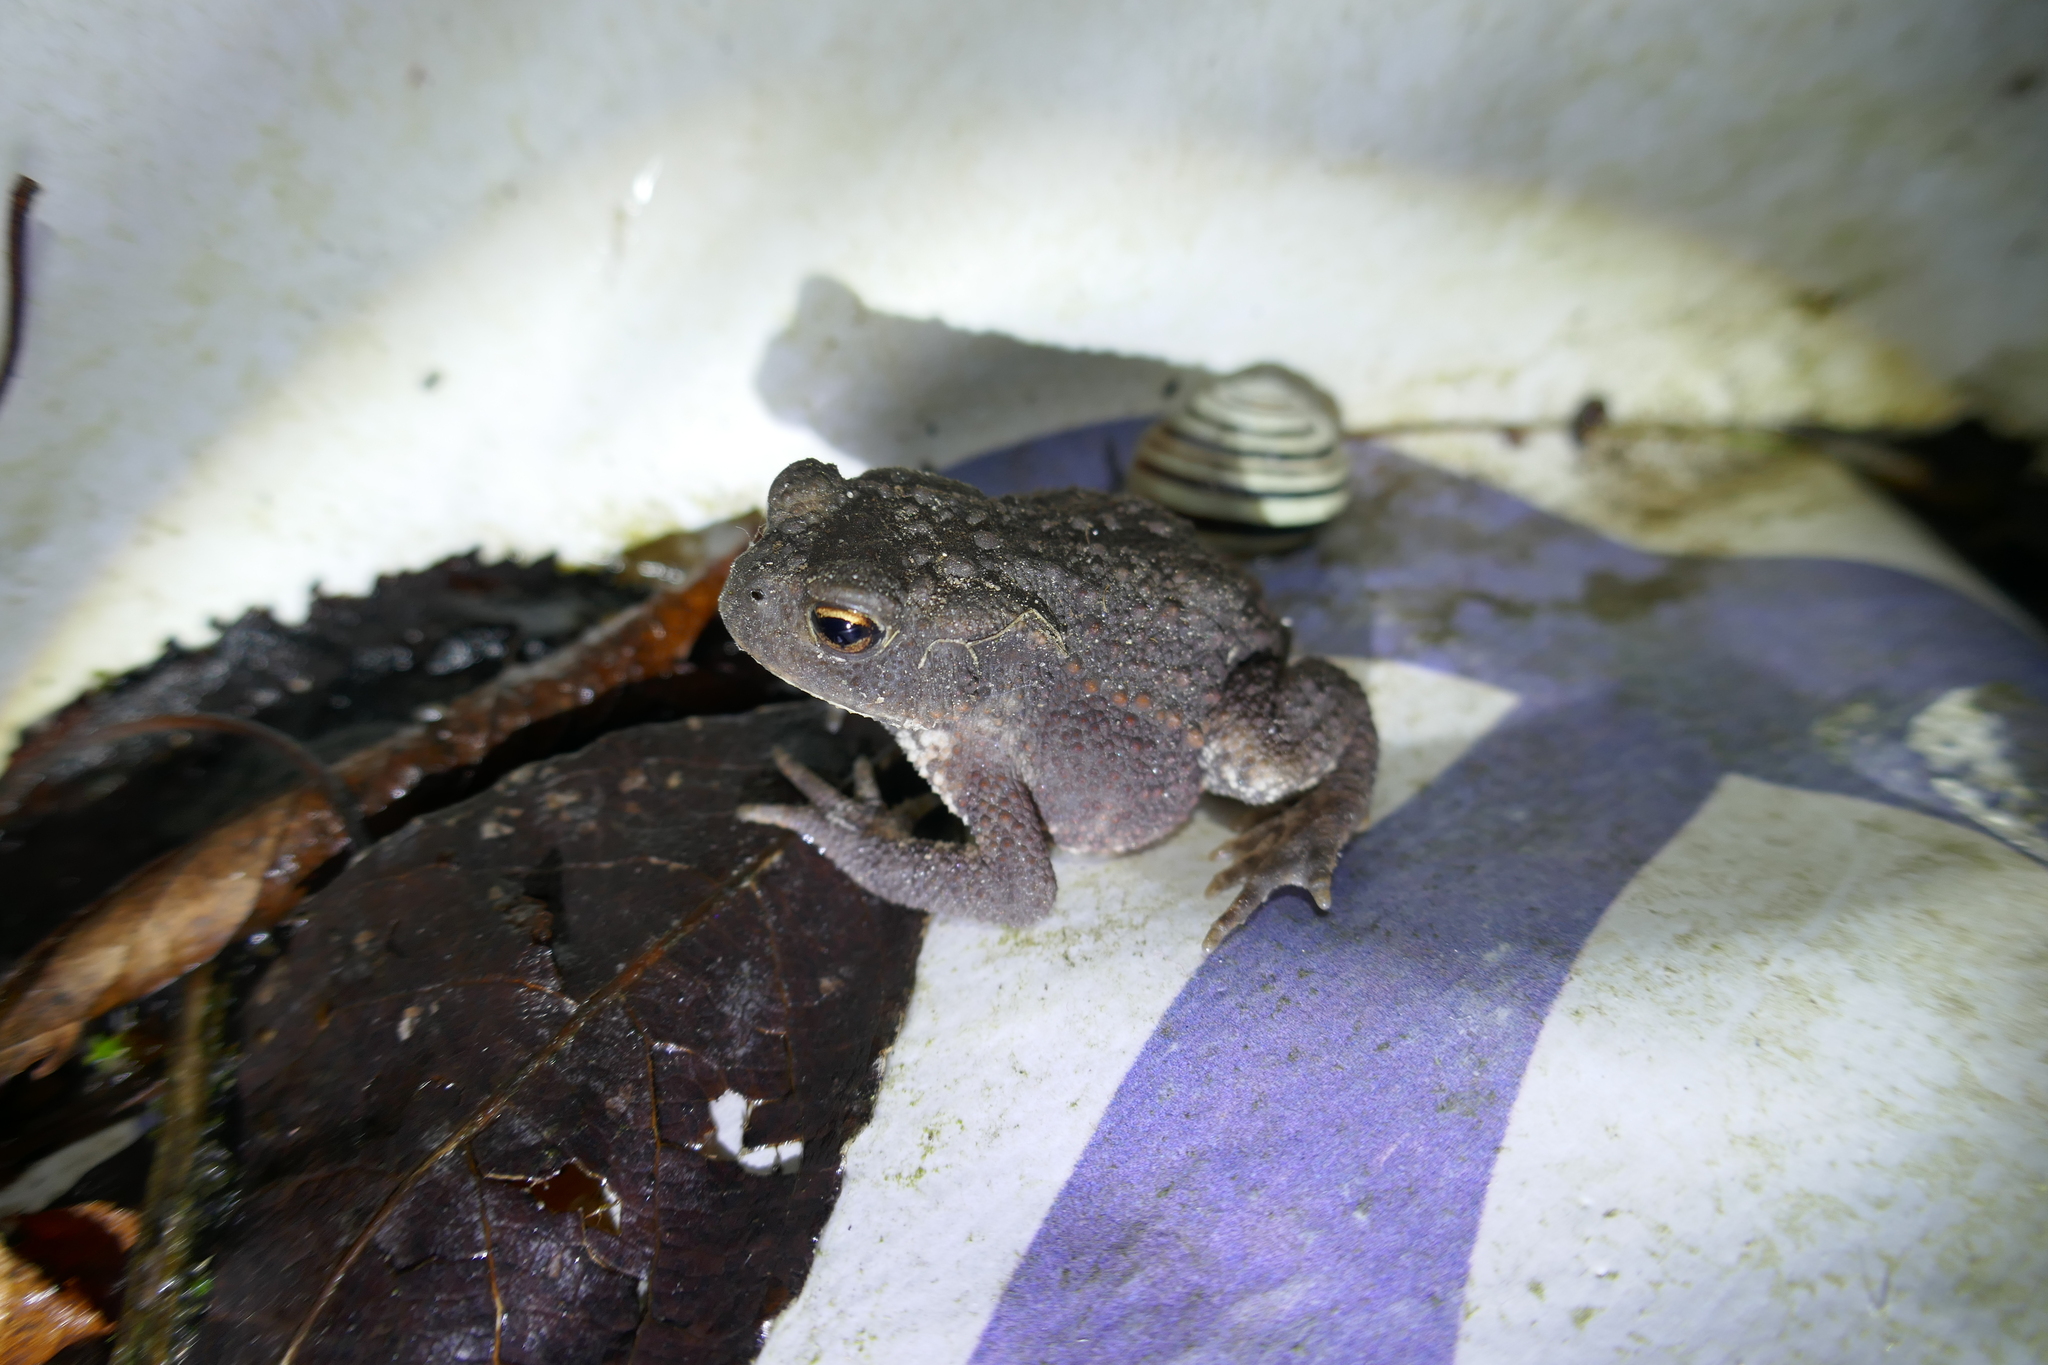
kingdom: Animalia
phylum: Chordata
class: Amphibia
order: Anura
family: Bufonidae
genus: Bufo
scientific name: Bufo bufo
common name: Common toad
